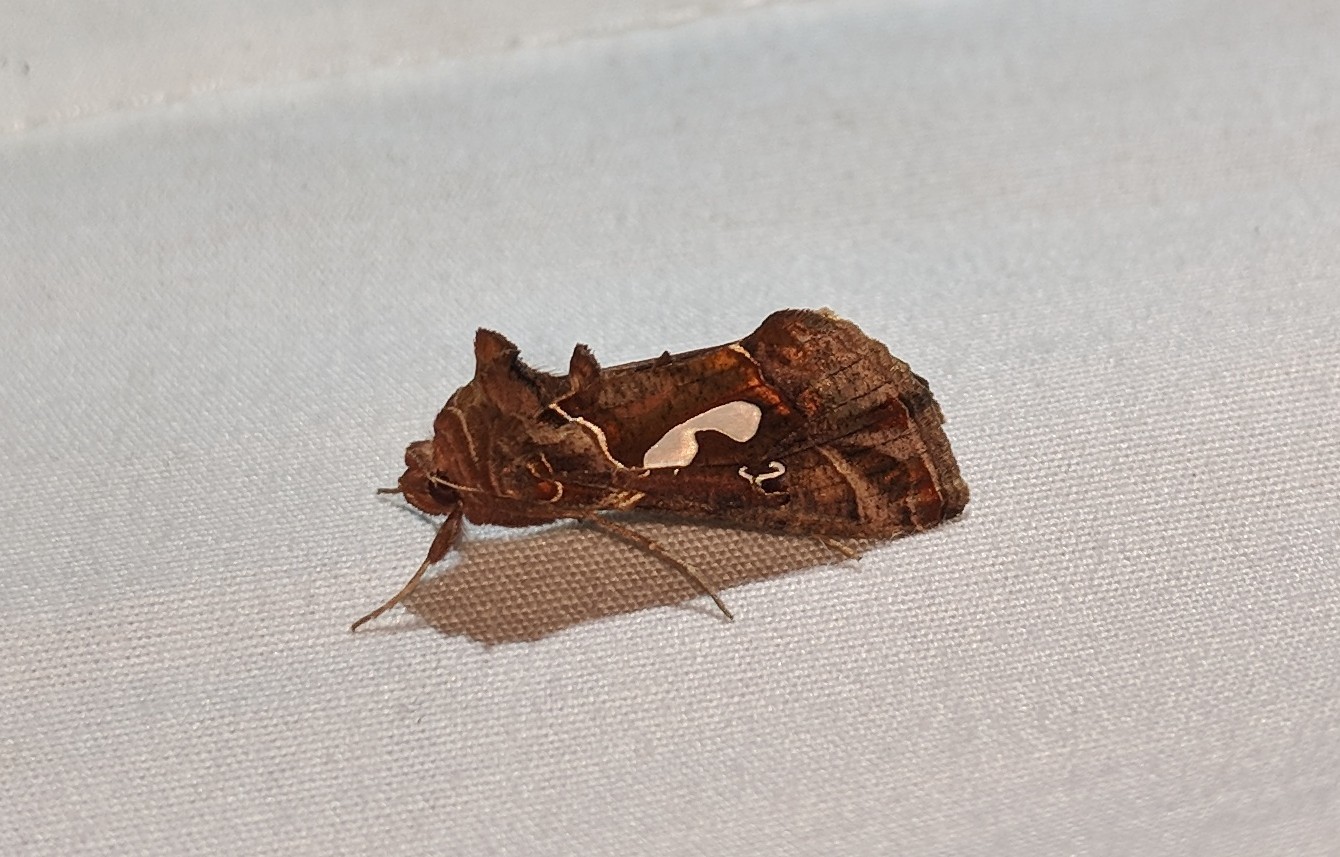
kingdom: Animalia
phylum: Arthropoda
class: Insecta
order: Lepidoptera
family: Noctuidae
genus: Megalographa
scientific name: Megalographa biloba
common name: Cutworm
